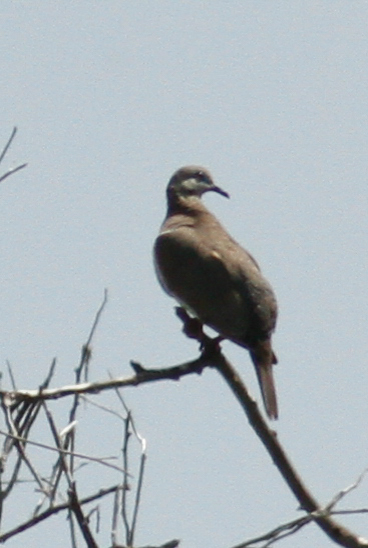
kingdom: Animalia
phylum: Chordata
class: Aves
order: Columbiformes
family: Columbidae
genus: Zenaida
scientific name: Zenaida meloda
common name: West peruvian dove
